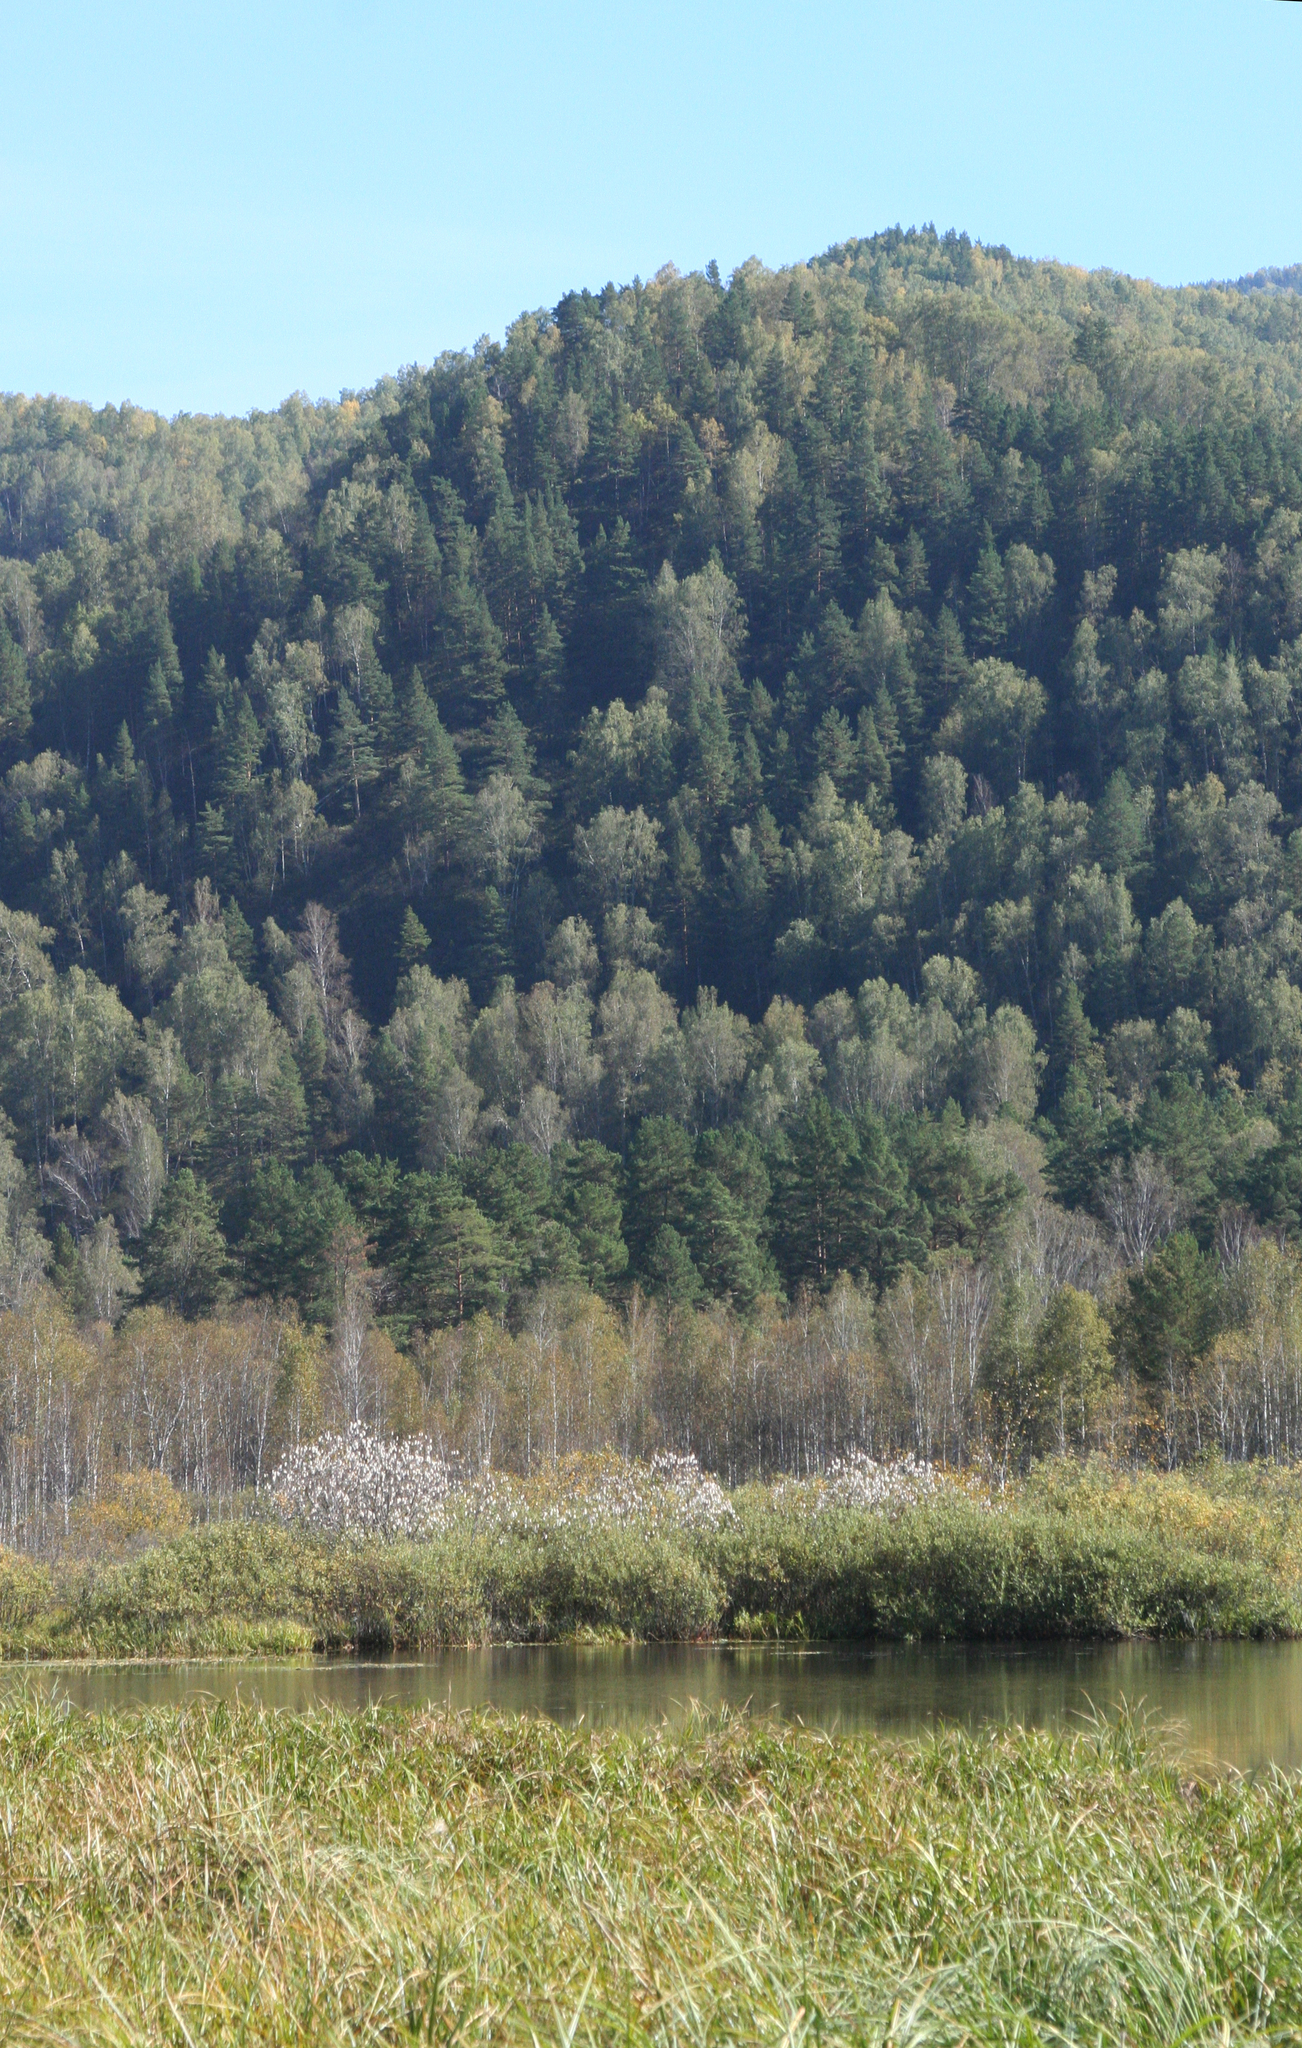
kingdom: Plantae
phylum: Tracheophyta
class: Pinopsida
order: Pinales
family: Pinaceae
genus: Pinus
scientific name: Pinus sylvestris
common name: Scots pine
